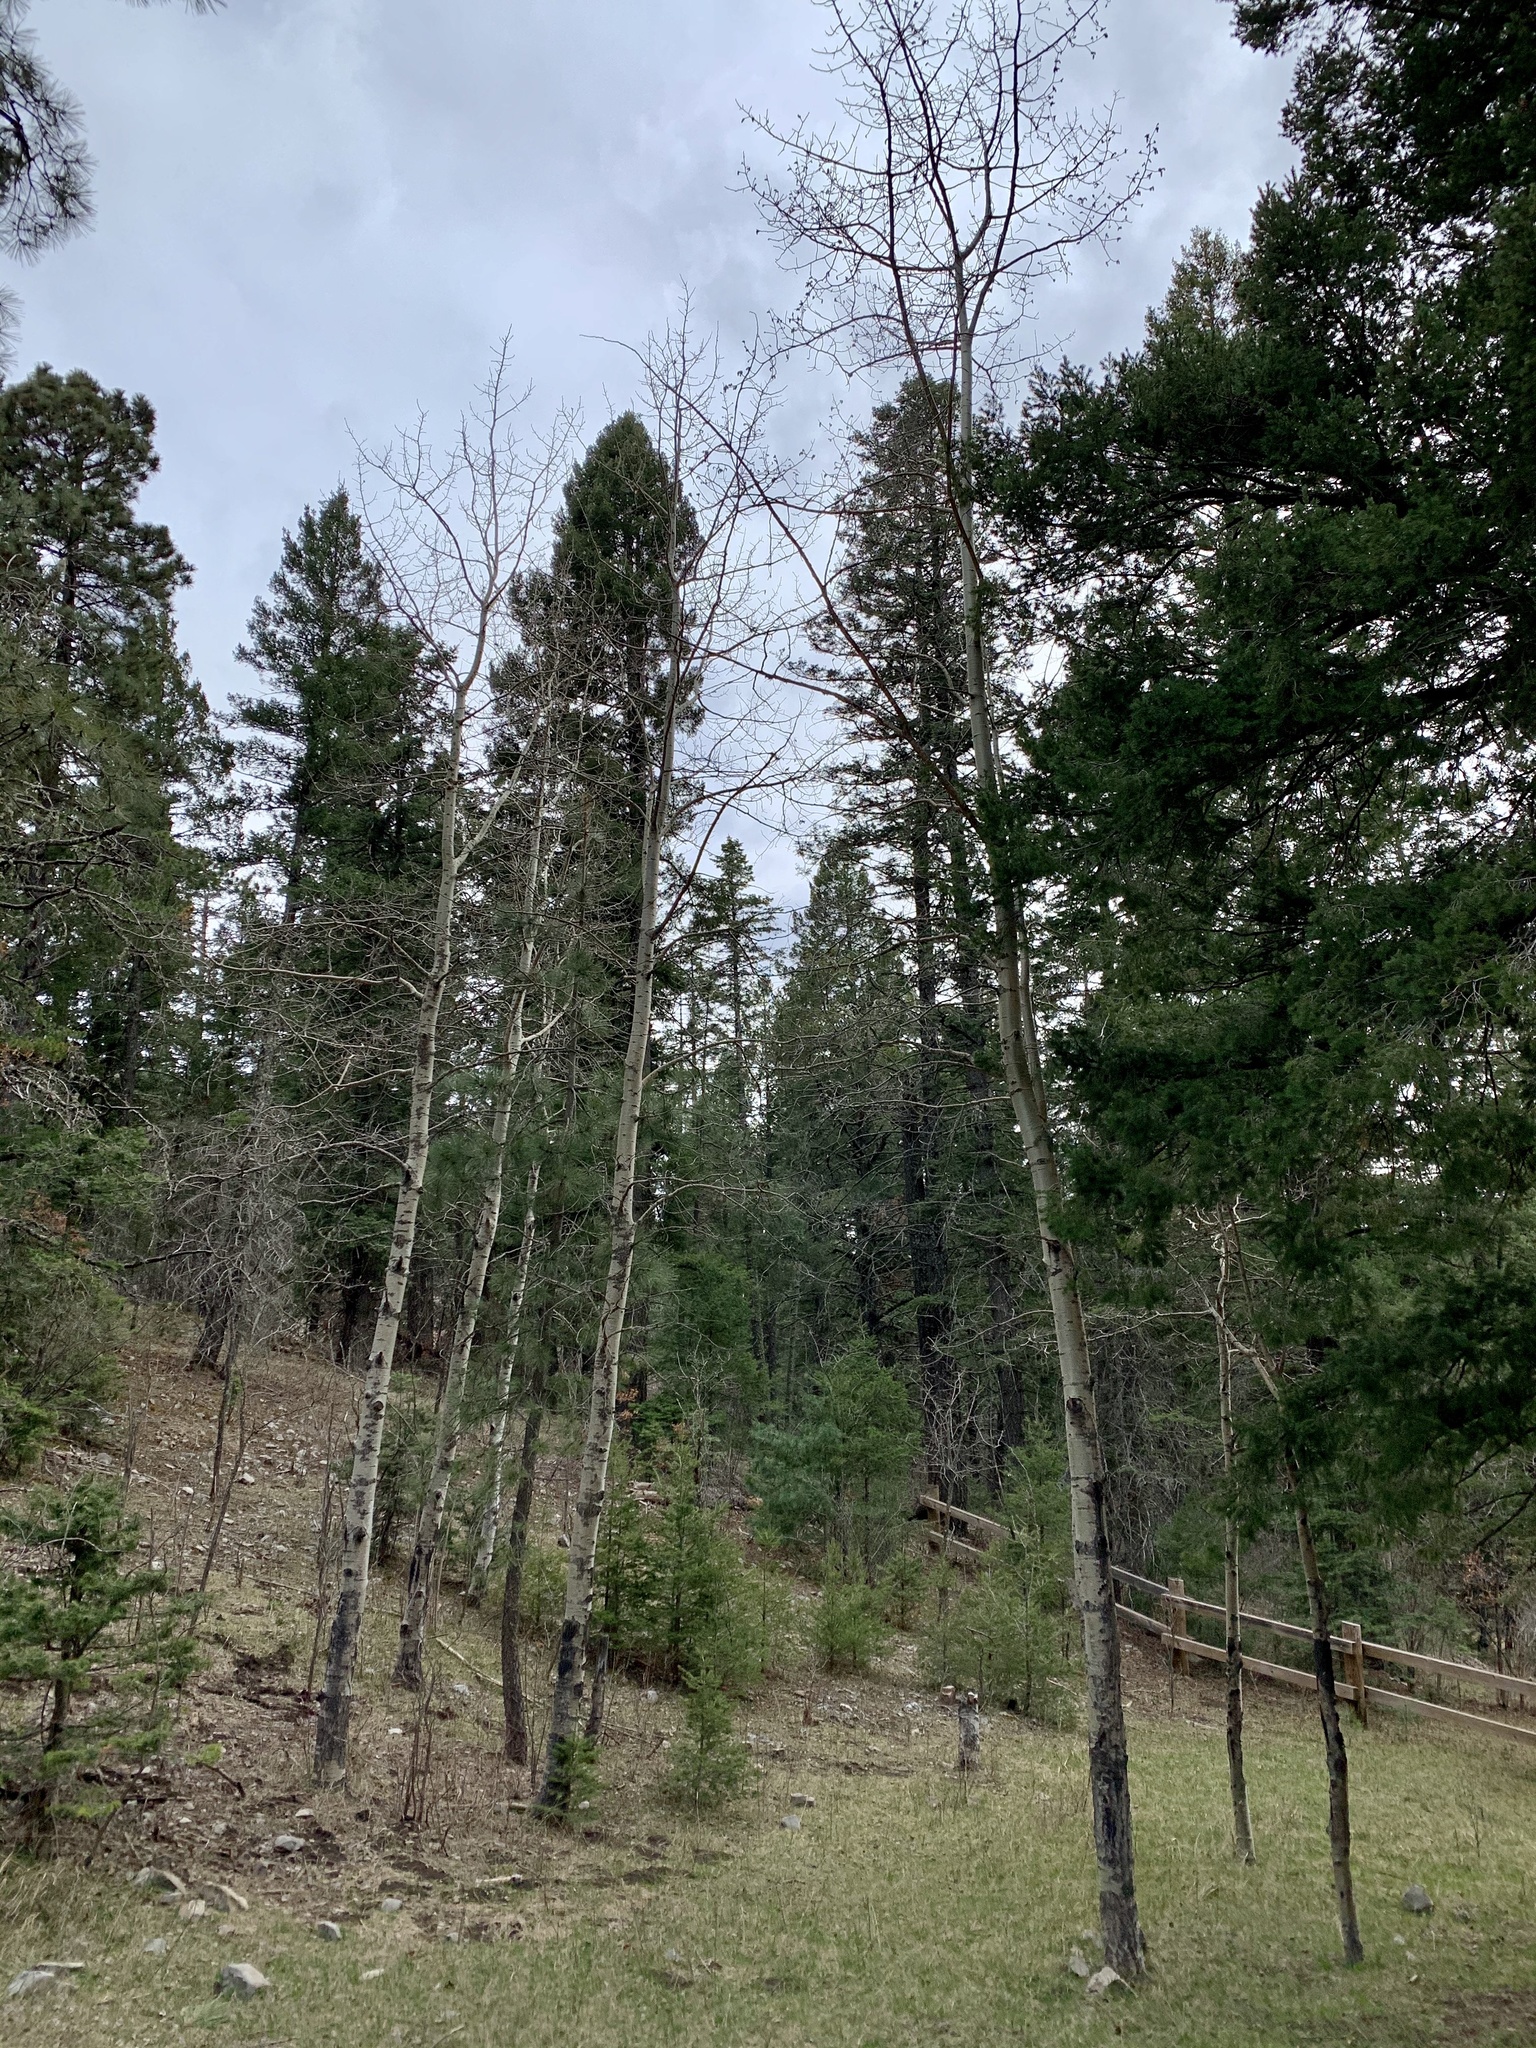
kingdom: Plantae
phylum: Tracheophyta
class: Magnoliopsida
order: Malpighiales
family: Salicaceae
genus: Populus
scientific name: Populus tremuloides
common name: Quaking aspen
